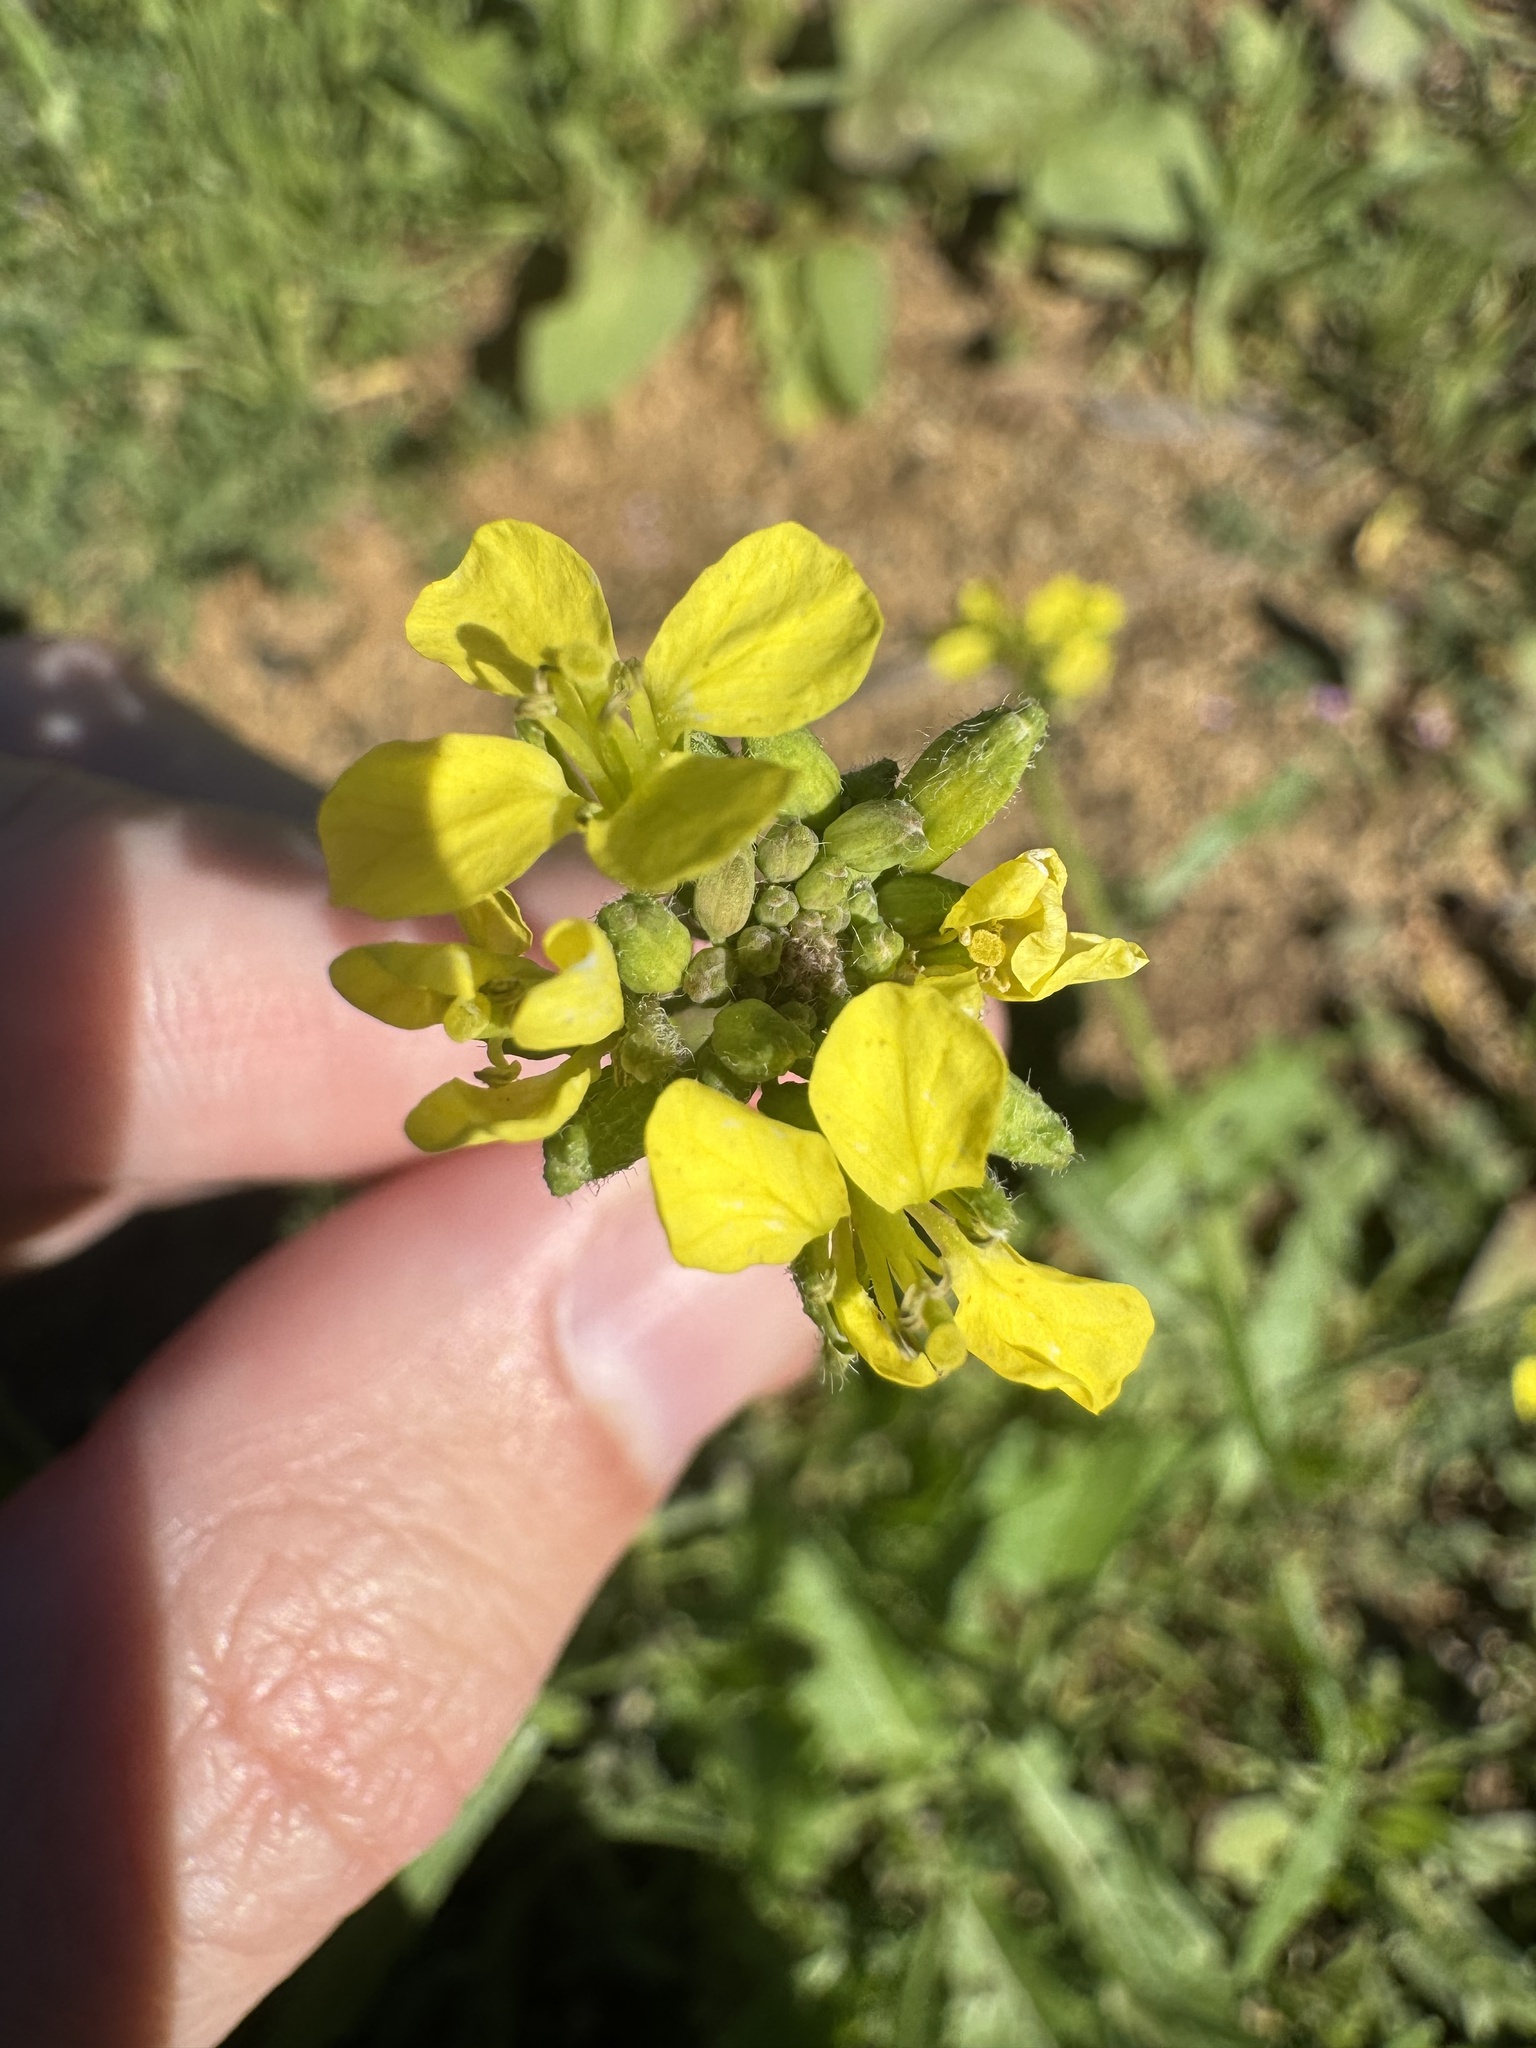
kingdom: Plantae
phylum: Tracheophyta
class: Magnoliopsida
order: Brassicales
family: Brassicaceae
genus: Brassica
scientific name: Brassica nigra
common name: Black mustard
